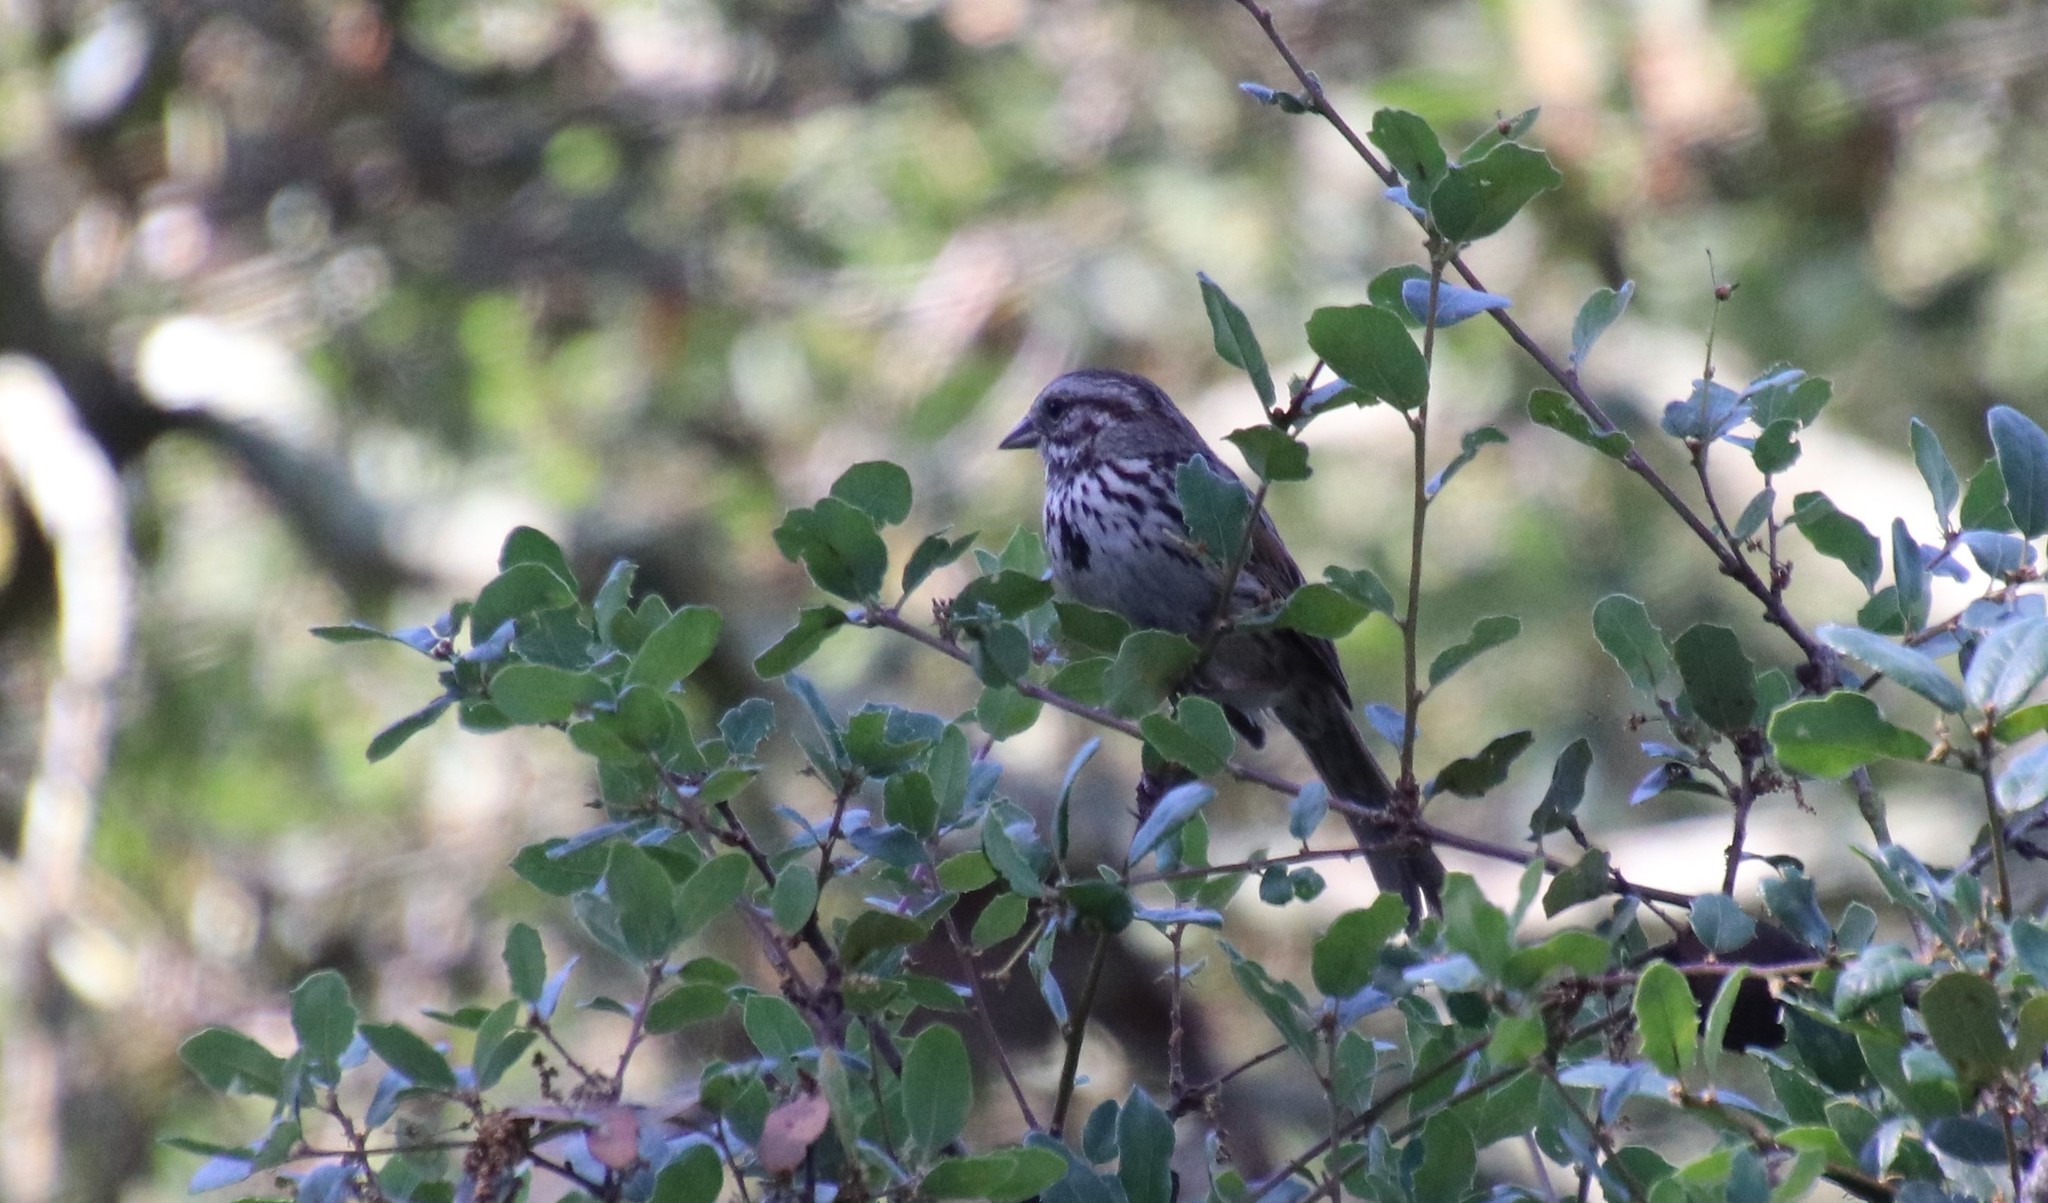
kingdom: Animalia
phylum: Chordata
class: Aves
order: Passeriformes
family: Passerellidae
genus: Melospiza
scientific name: Melospiza melodia
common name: Song sparrow
